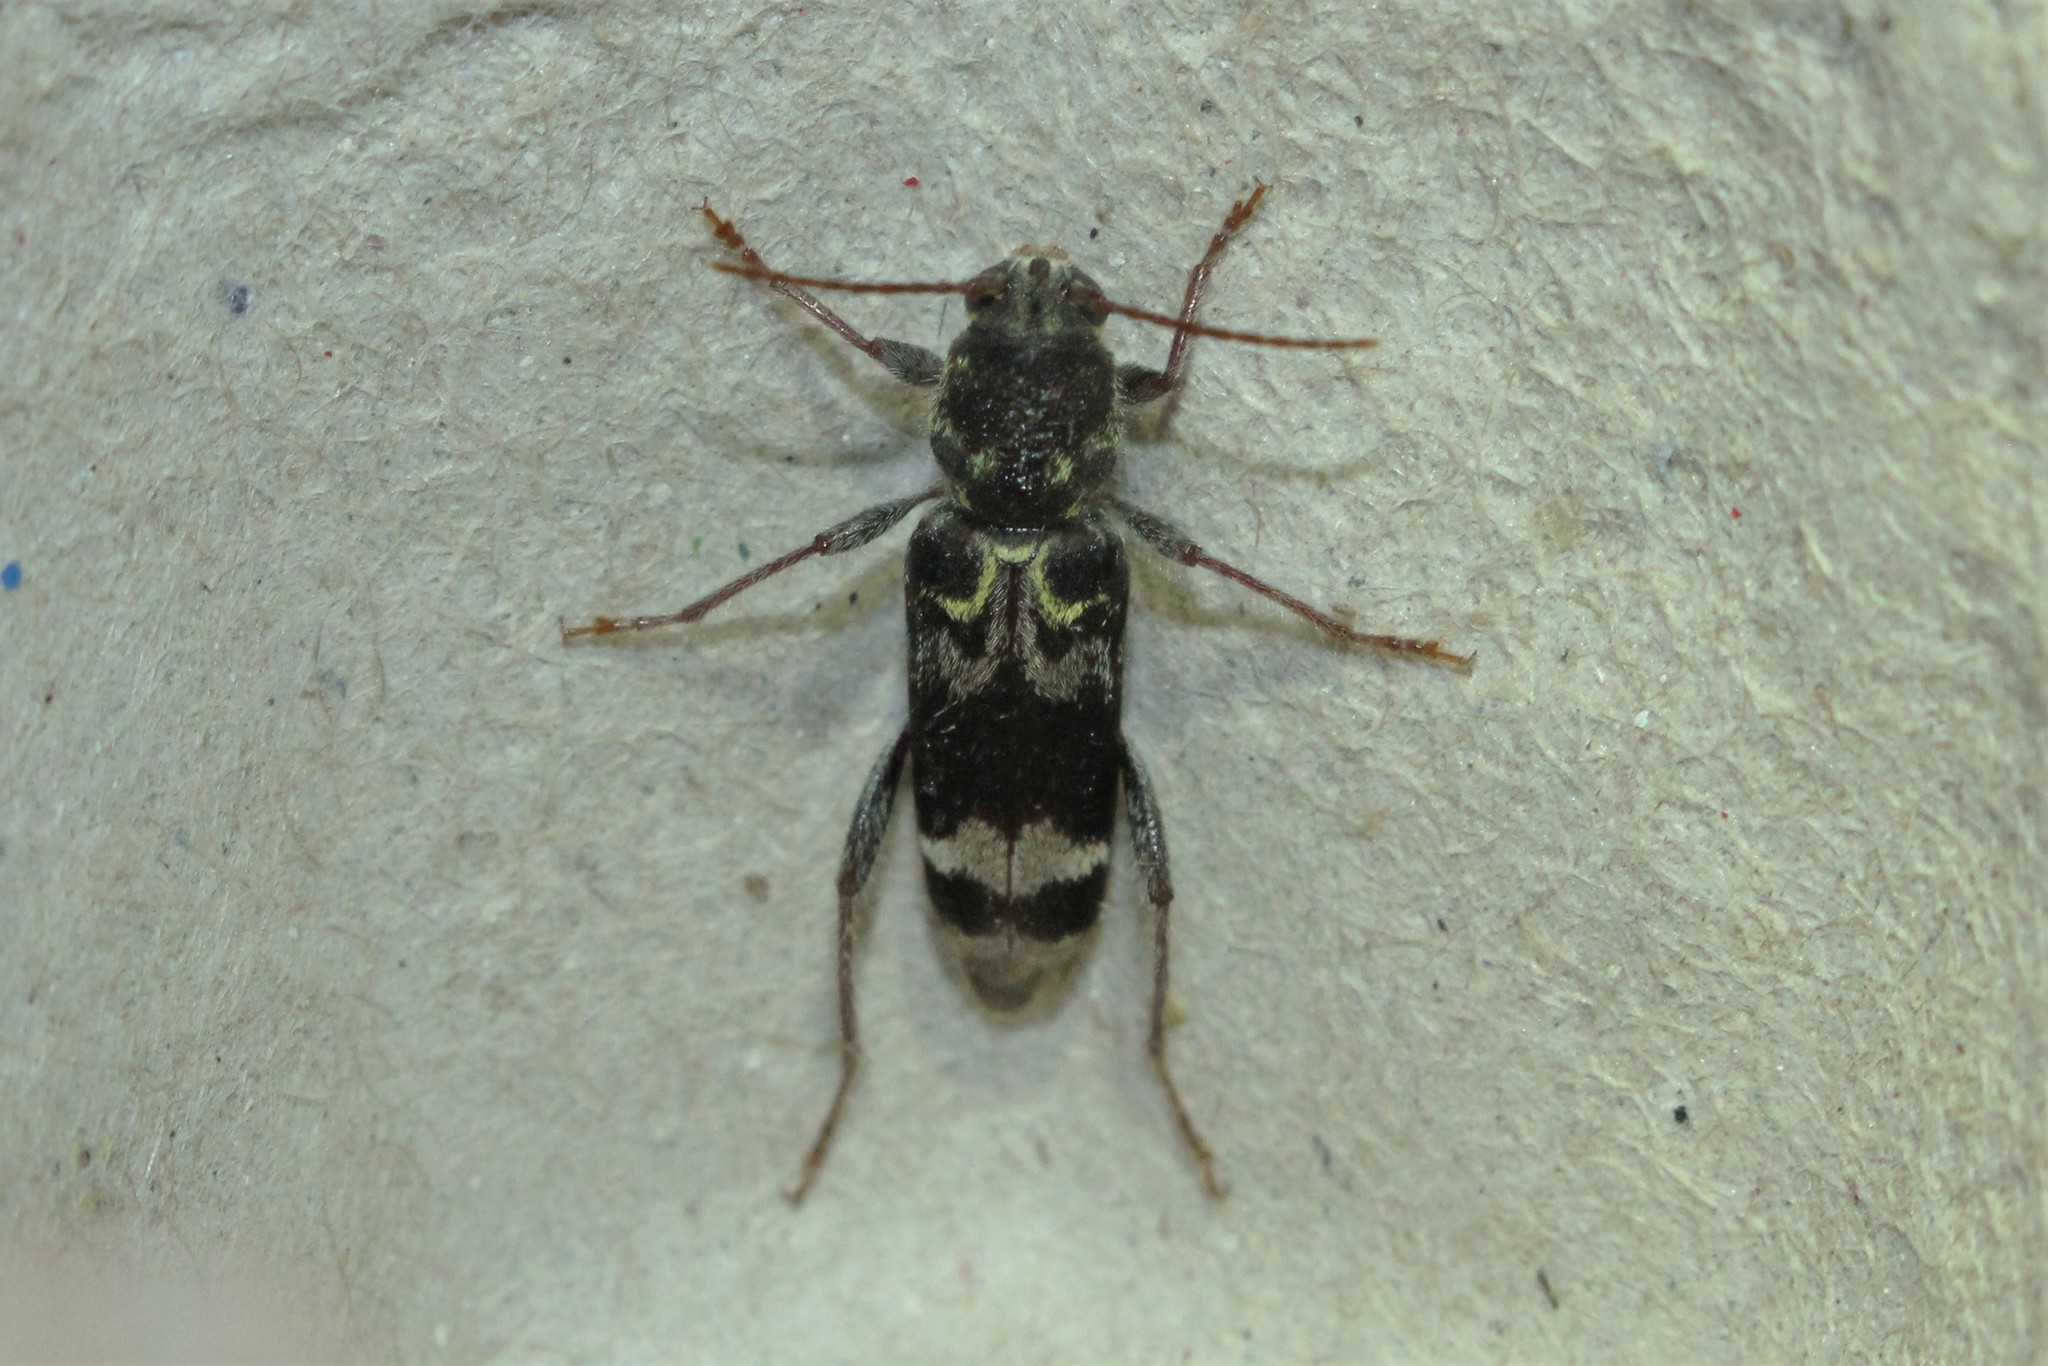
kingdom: Animalia
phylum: Arthropoda
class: Insecta
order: Coleoptera
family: Cerambycidae
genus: Xylotrechus
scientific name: Xylotrechus colonus
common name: Long-horned beetle
